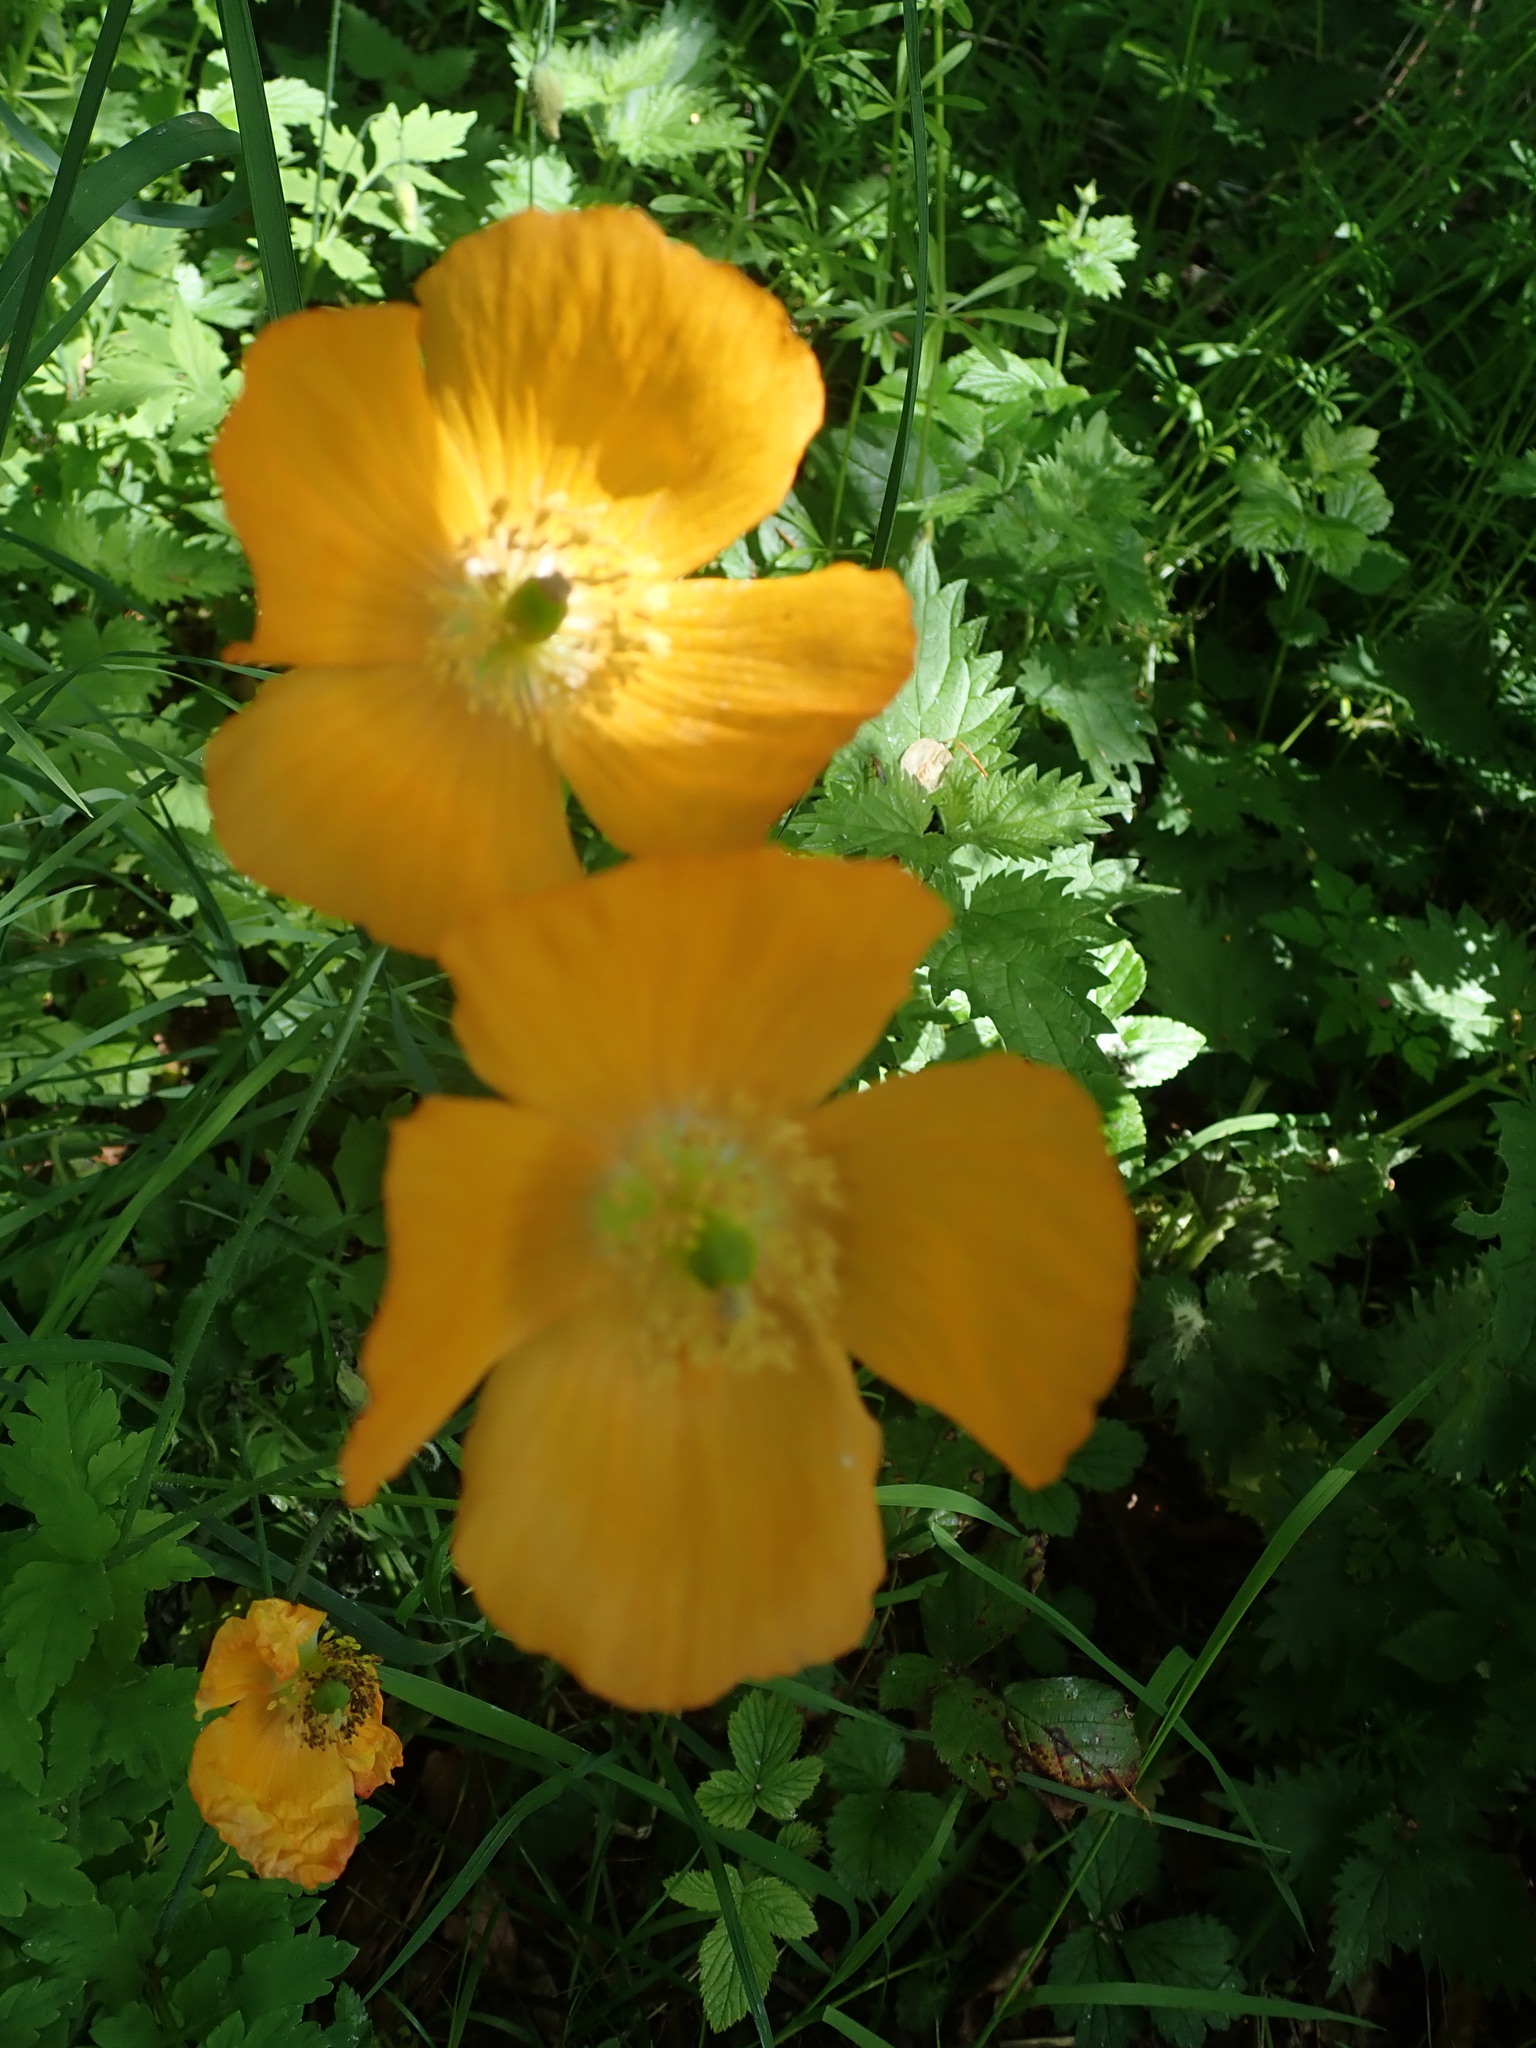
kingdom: Plantae
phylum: Tracheophyta
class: Magnoliopsida
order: Ranunculales
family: Papaveraceae
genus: Papaver
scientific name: Papaver cambricum
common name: Poppy
